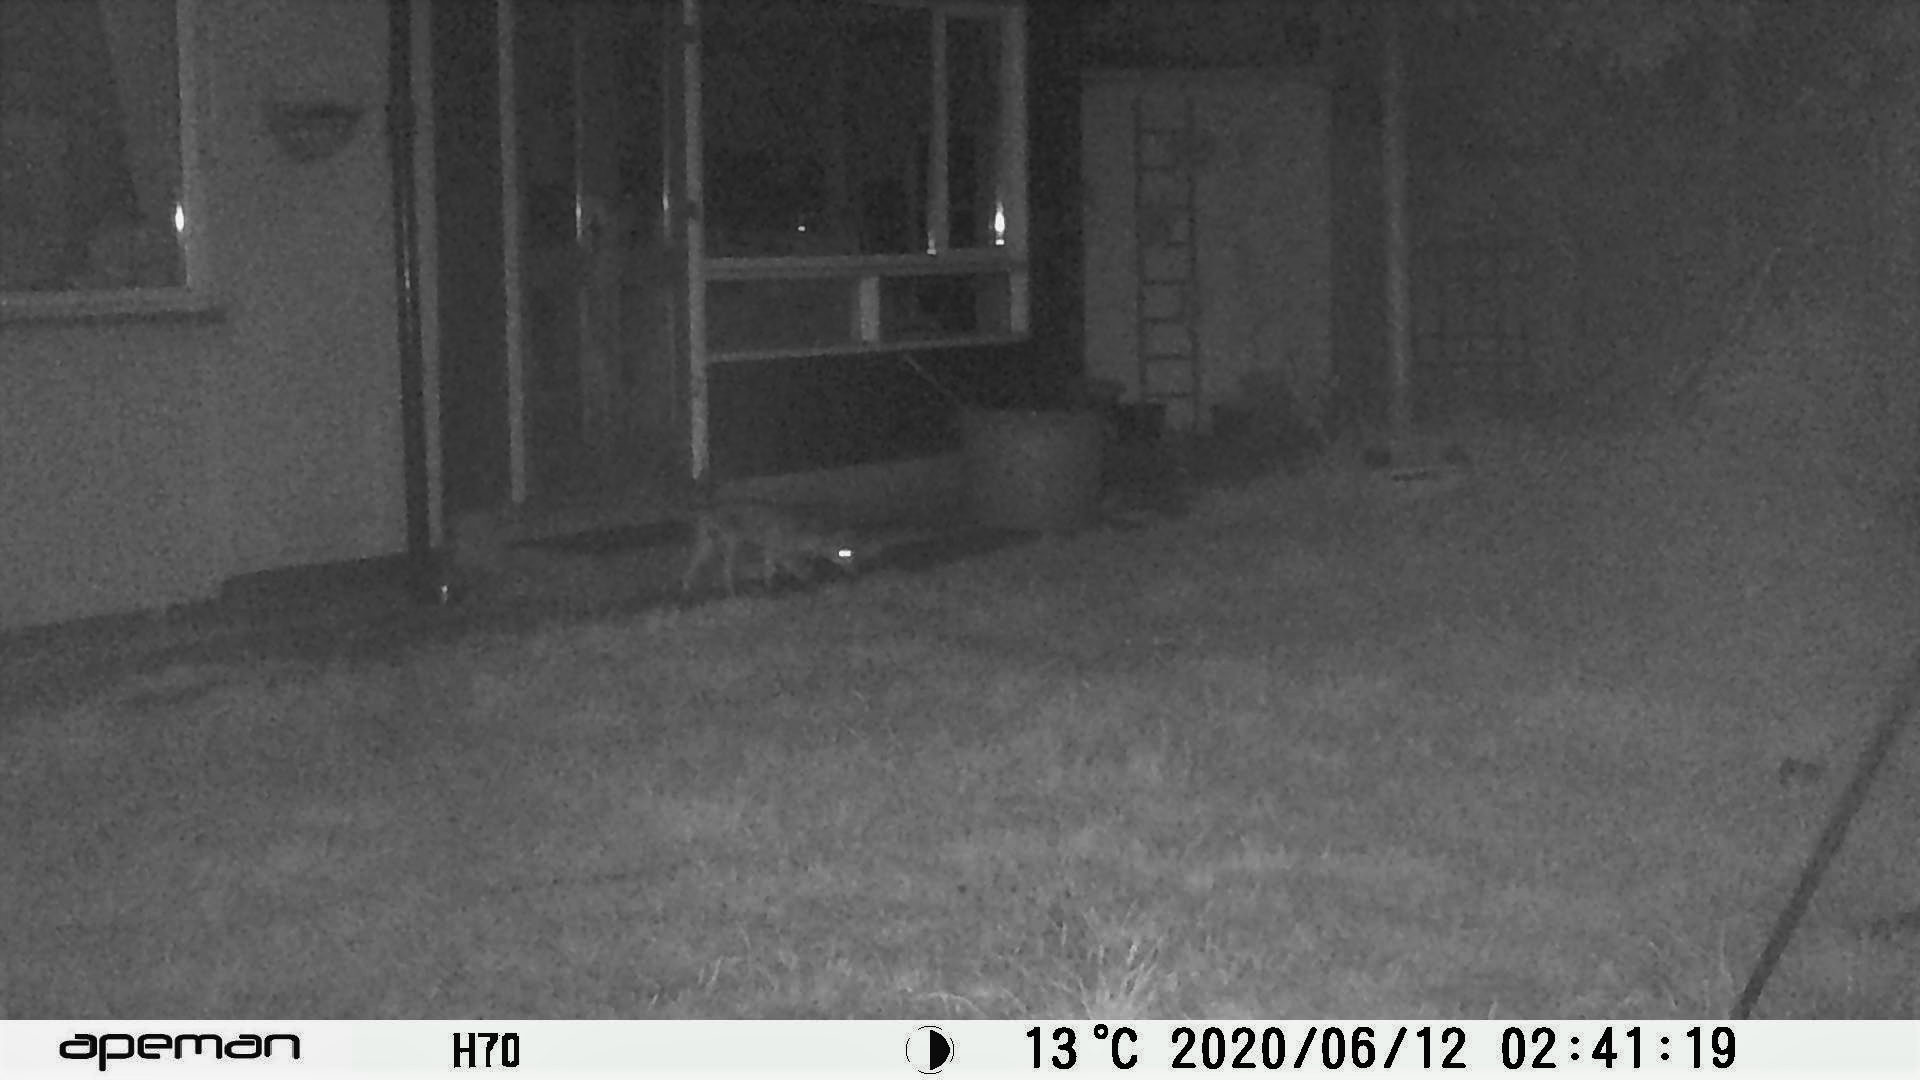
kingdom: Animalia
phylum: Chordata
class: Mammalia
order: Carnivora
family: Canidae
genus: Vulpes
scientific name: Vulpes vulpes
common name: Red fox
